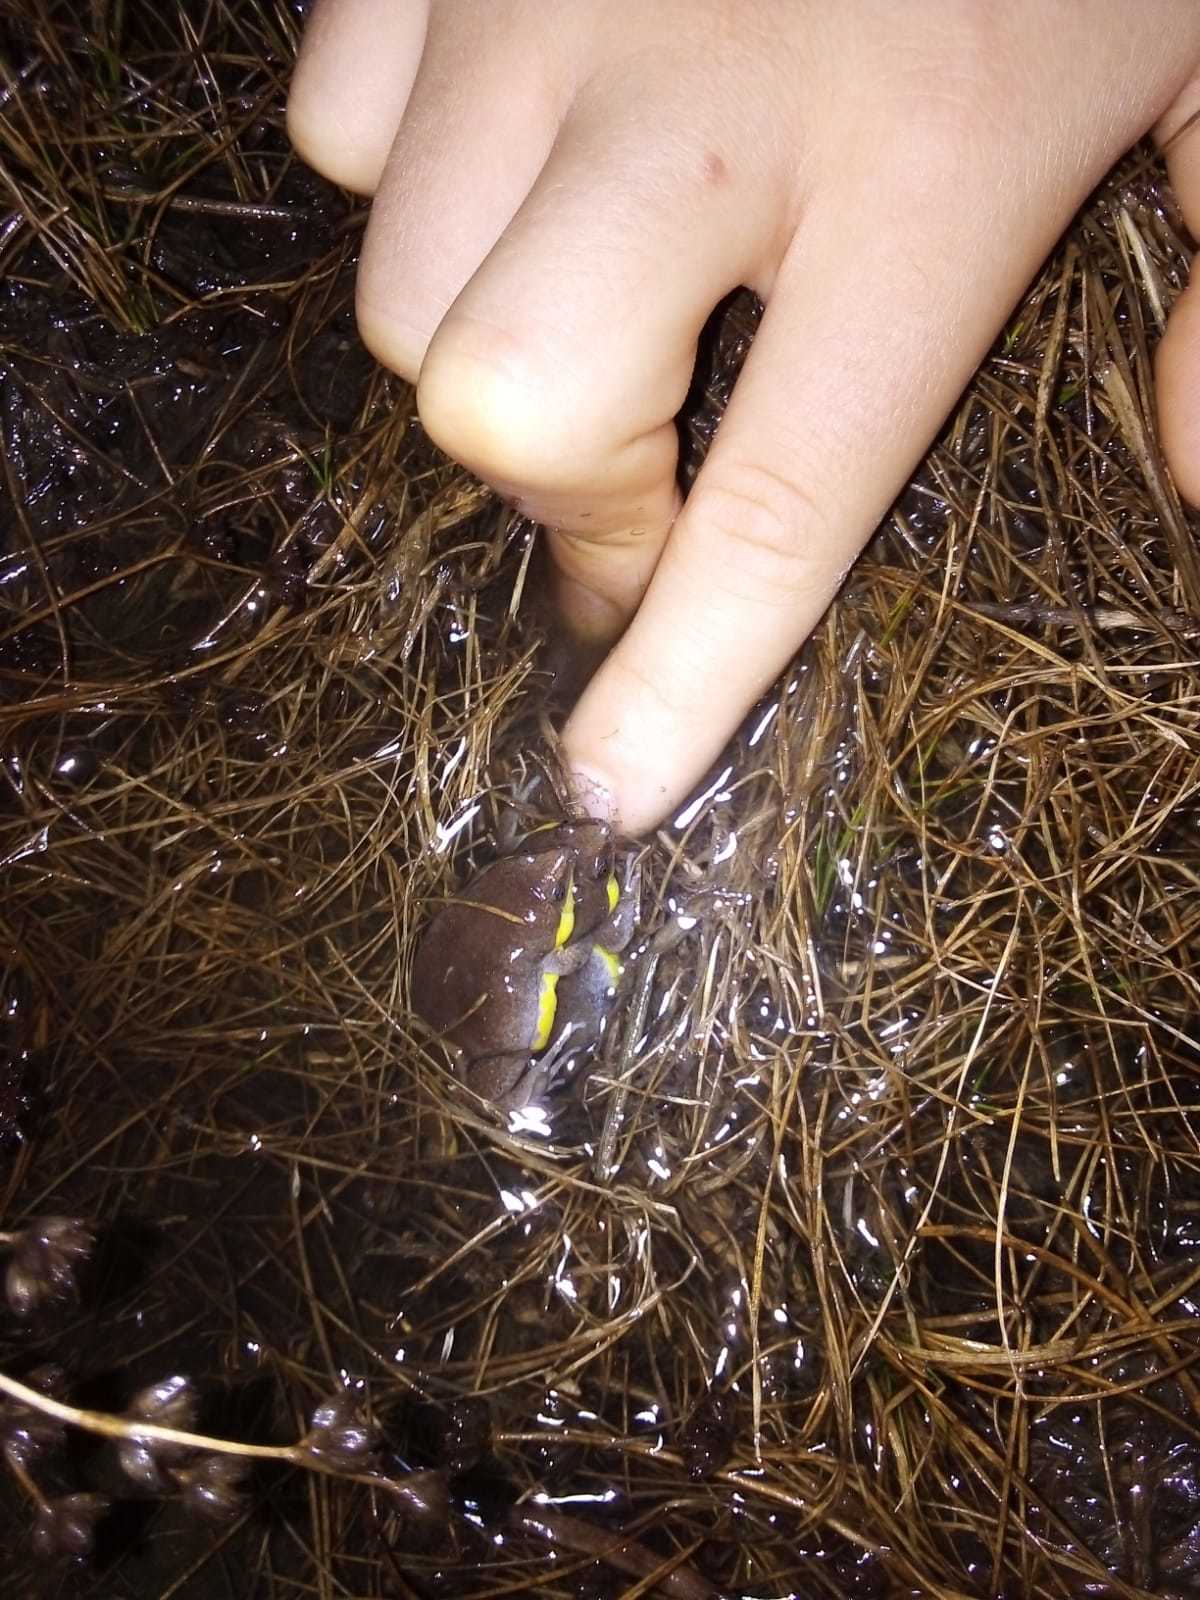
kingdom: Animalia
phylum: Chordata
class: Amphibia
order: Anura
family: Microhylidae
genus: Elachistocleis
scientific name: Elachistocleis bicolor
